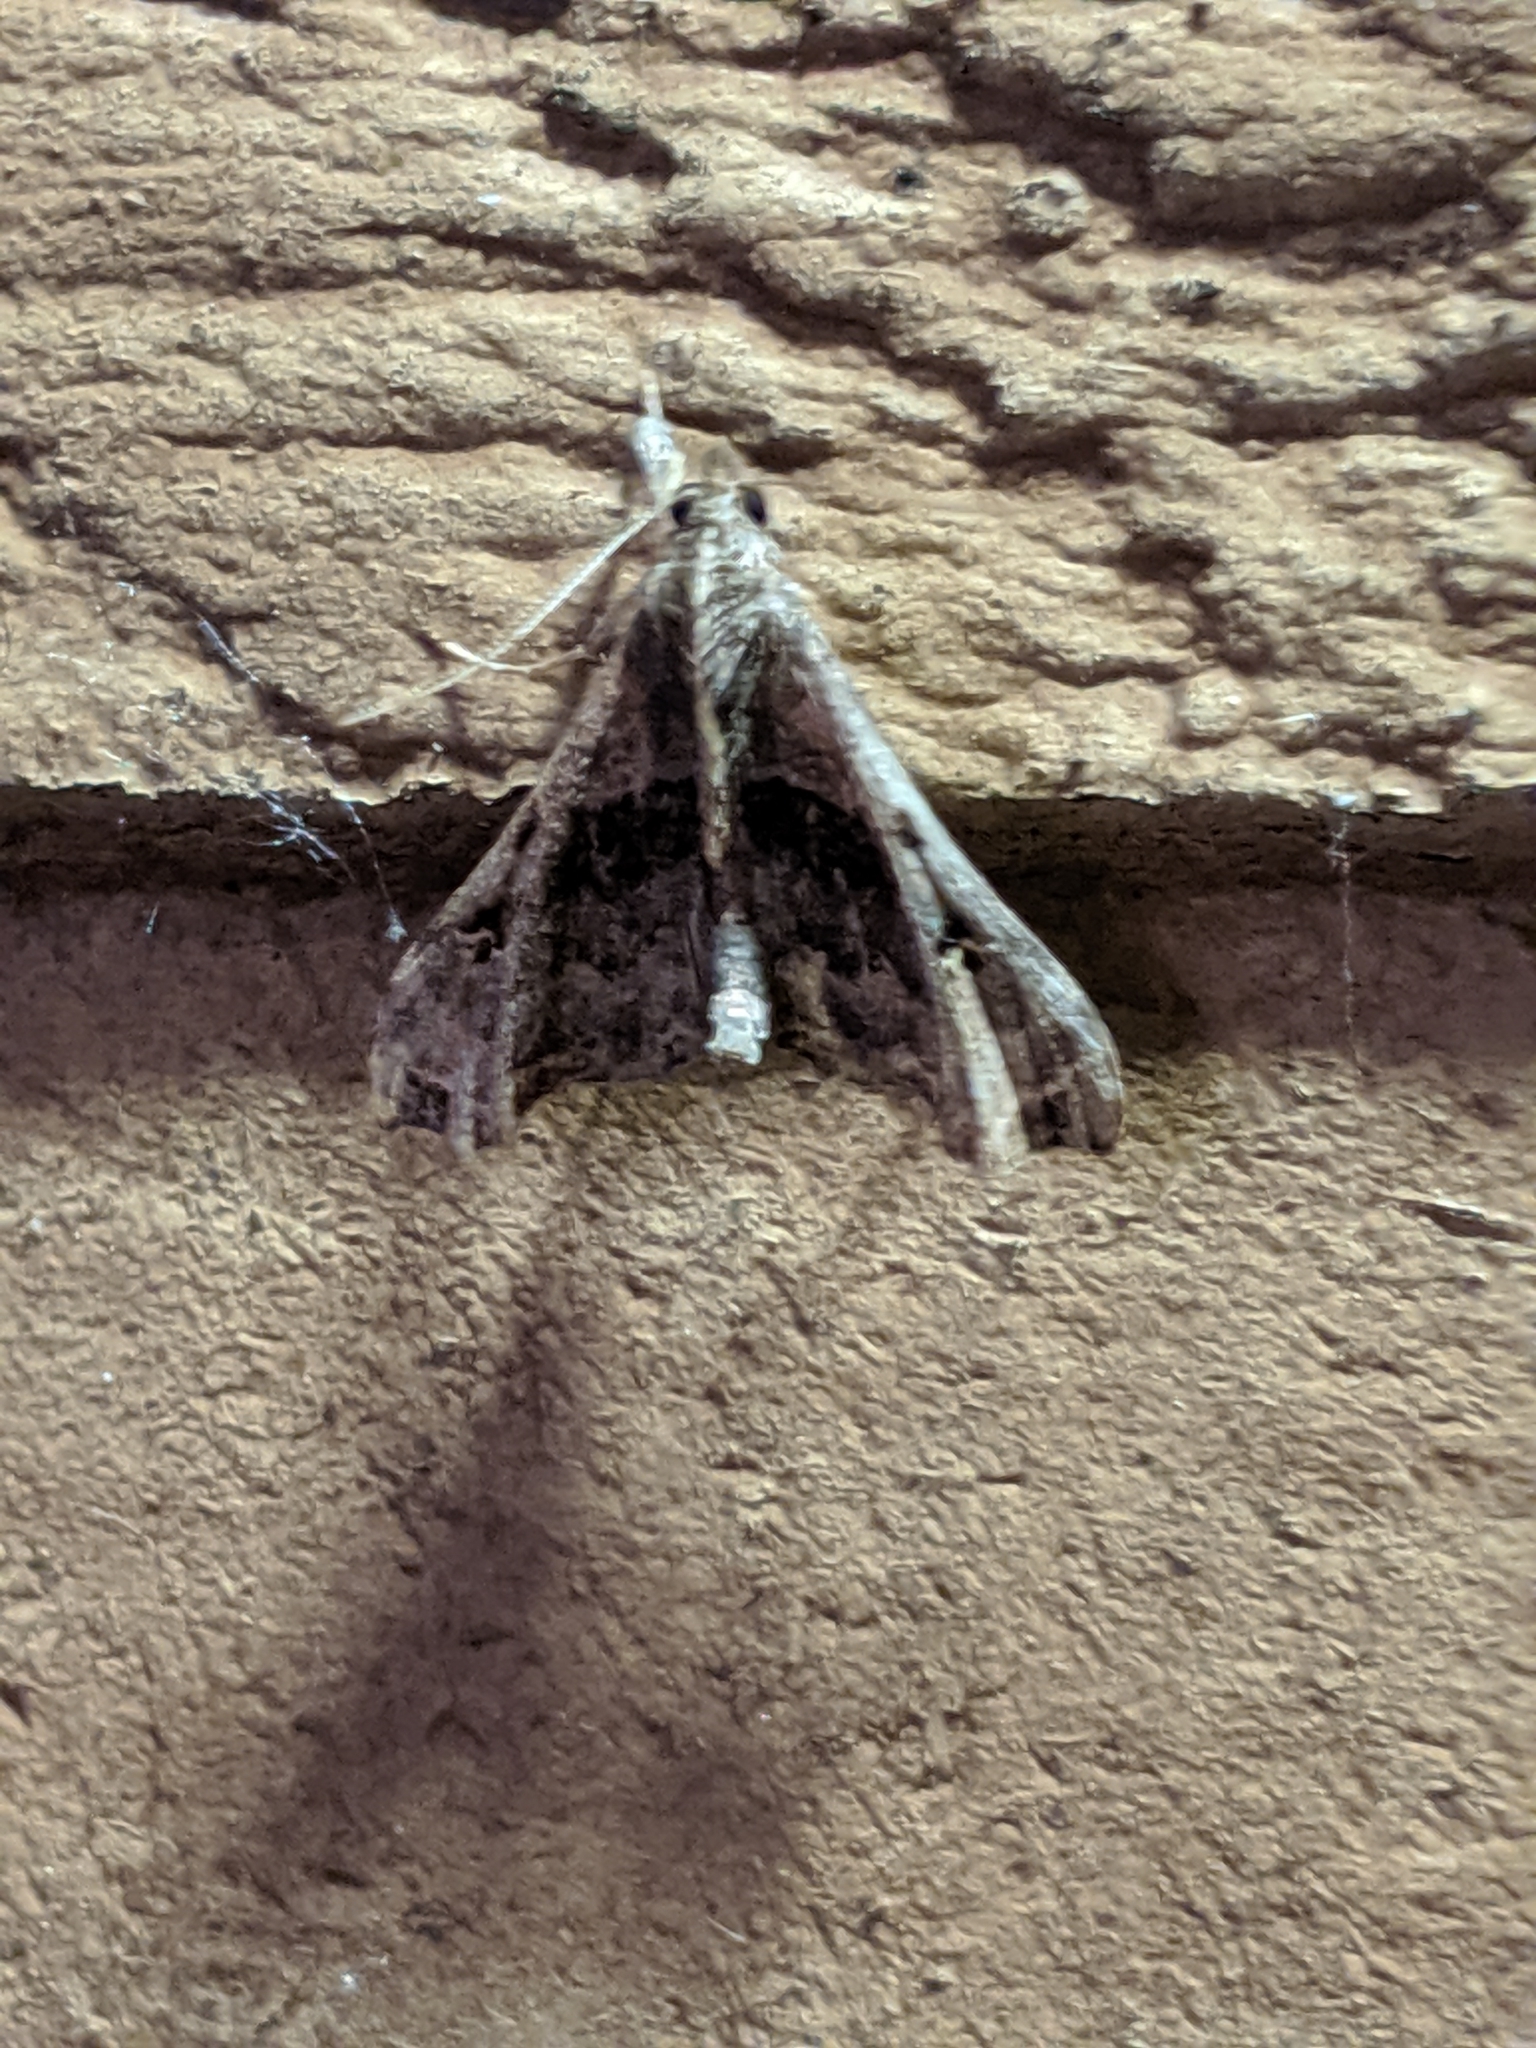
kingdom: Animalia
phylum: Arthropoda
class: Insecta
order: Lepidoptera
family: Erebidae
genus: Palthis
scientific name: Palthis asopialis
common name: Faint-spotted palthis moth
